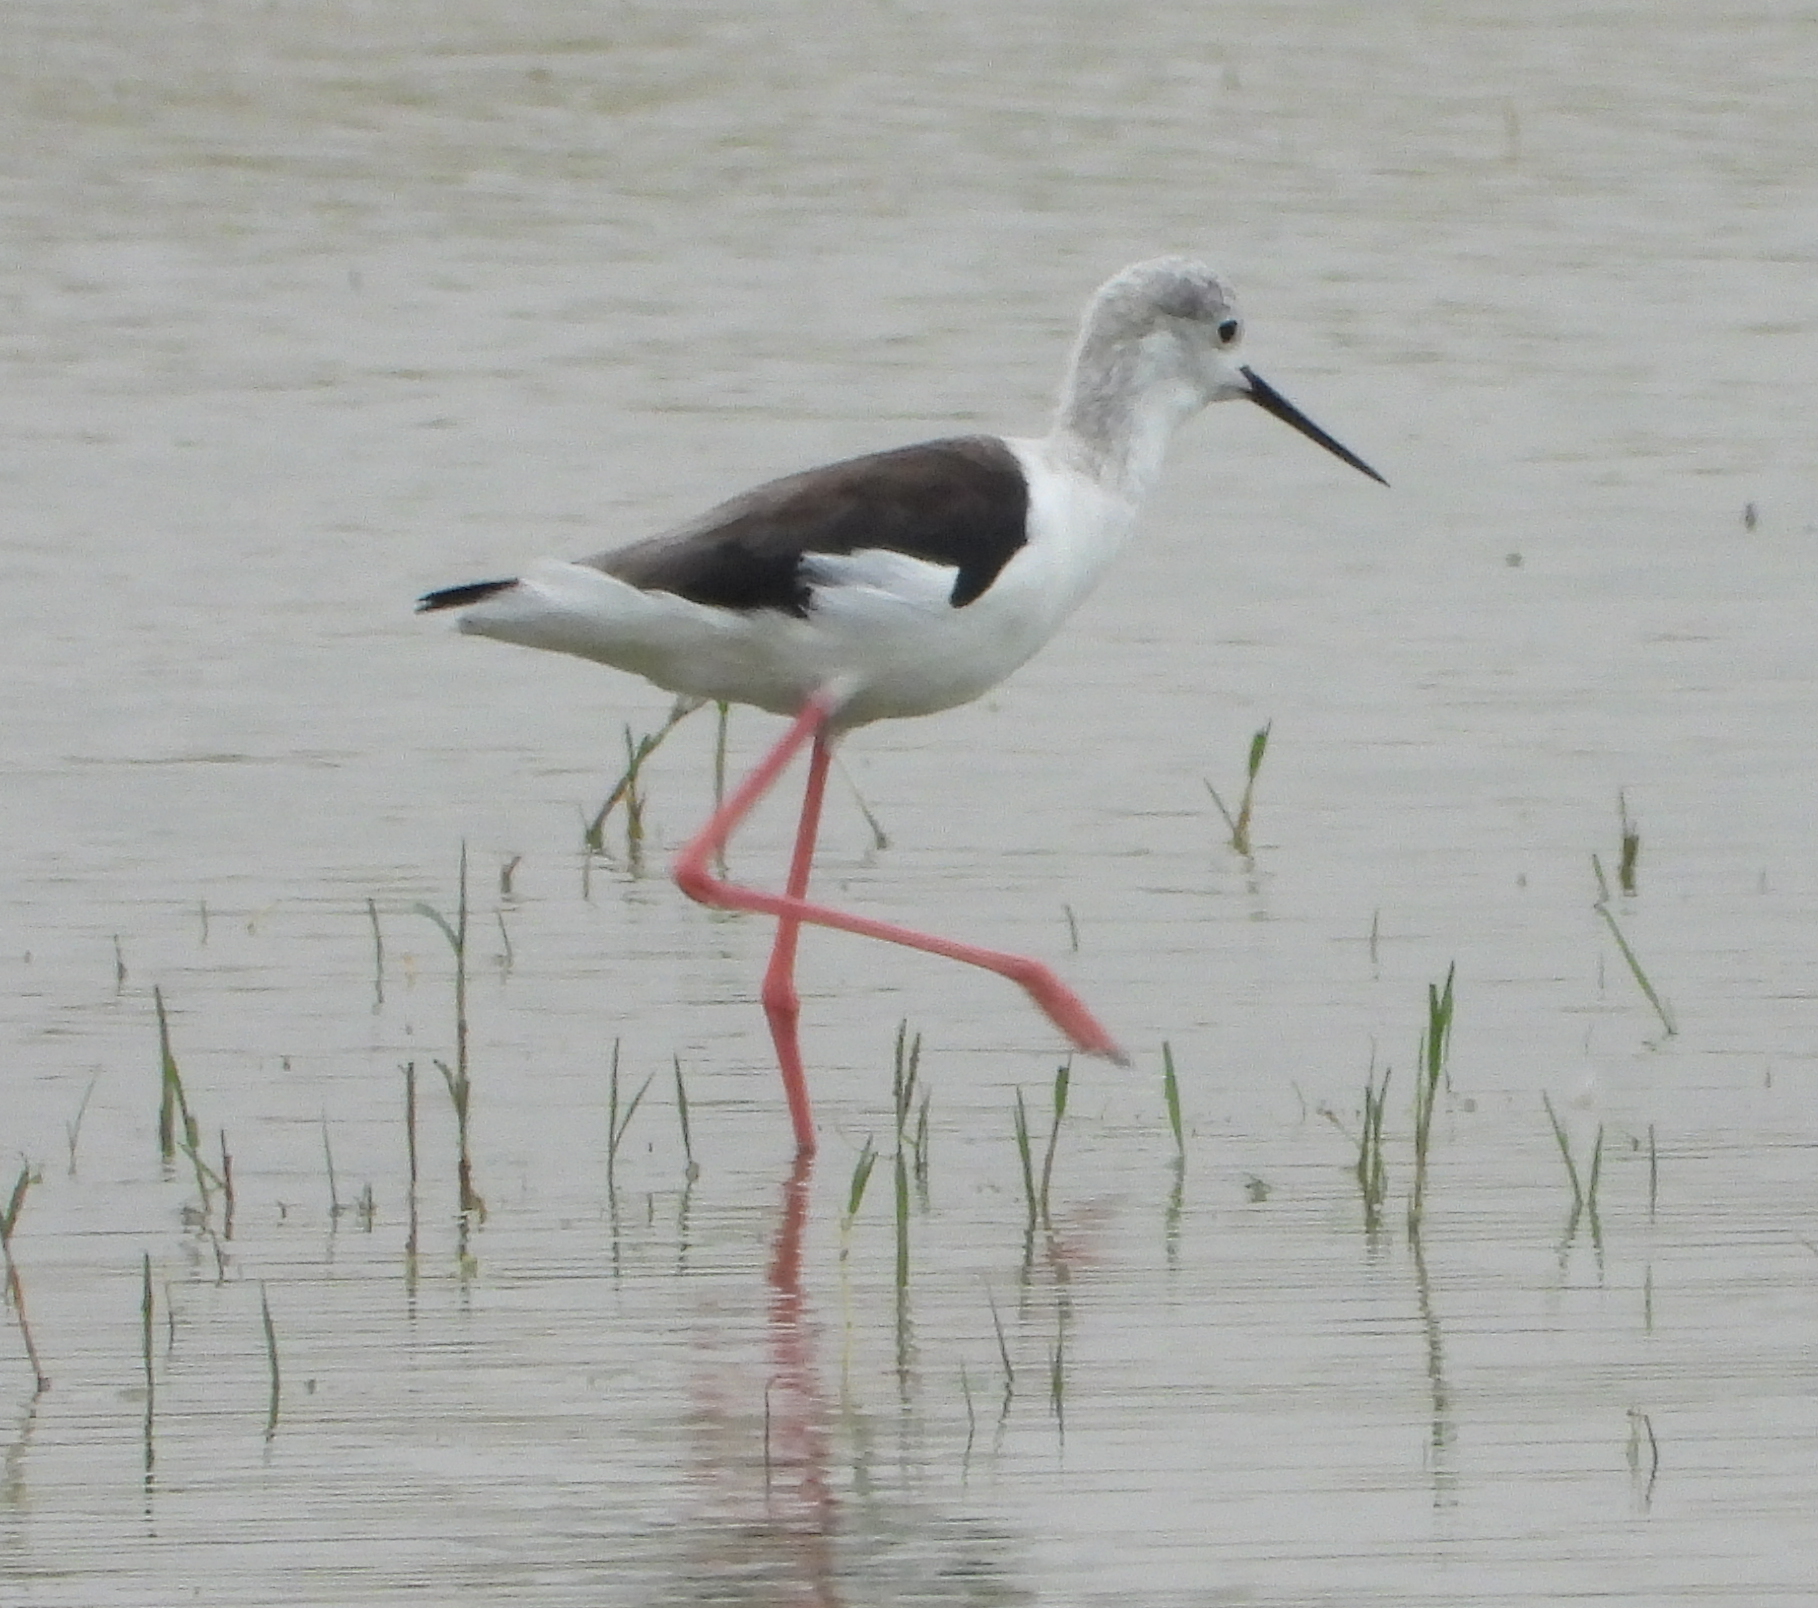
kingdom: Animalia
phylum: Chordata
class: Aves
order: Charadriiformes
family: Recurvirostridae
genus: Himantopus
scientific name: Himantopus himantopus
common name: Black-winged stilt
